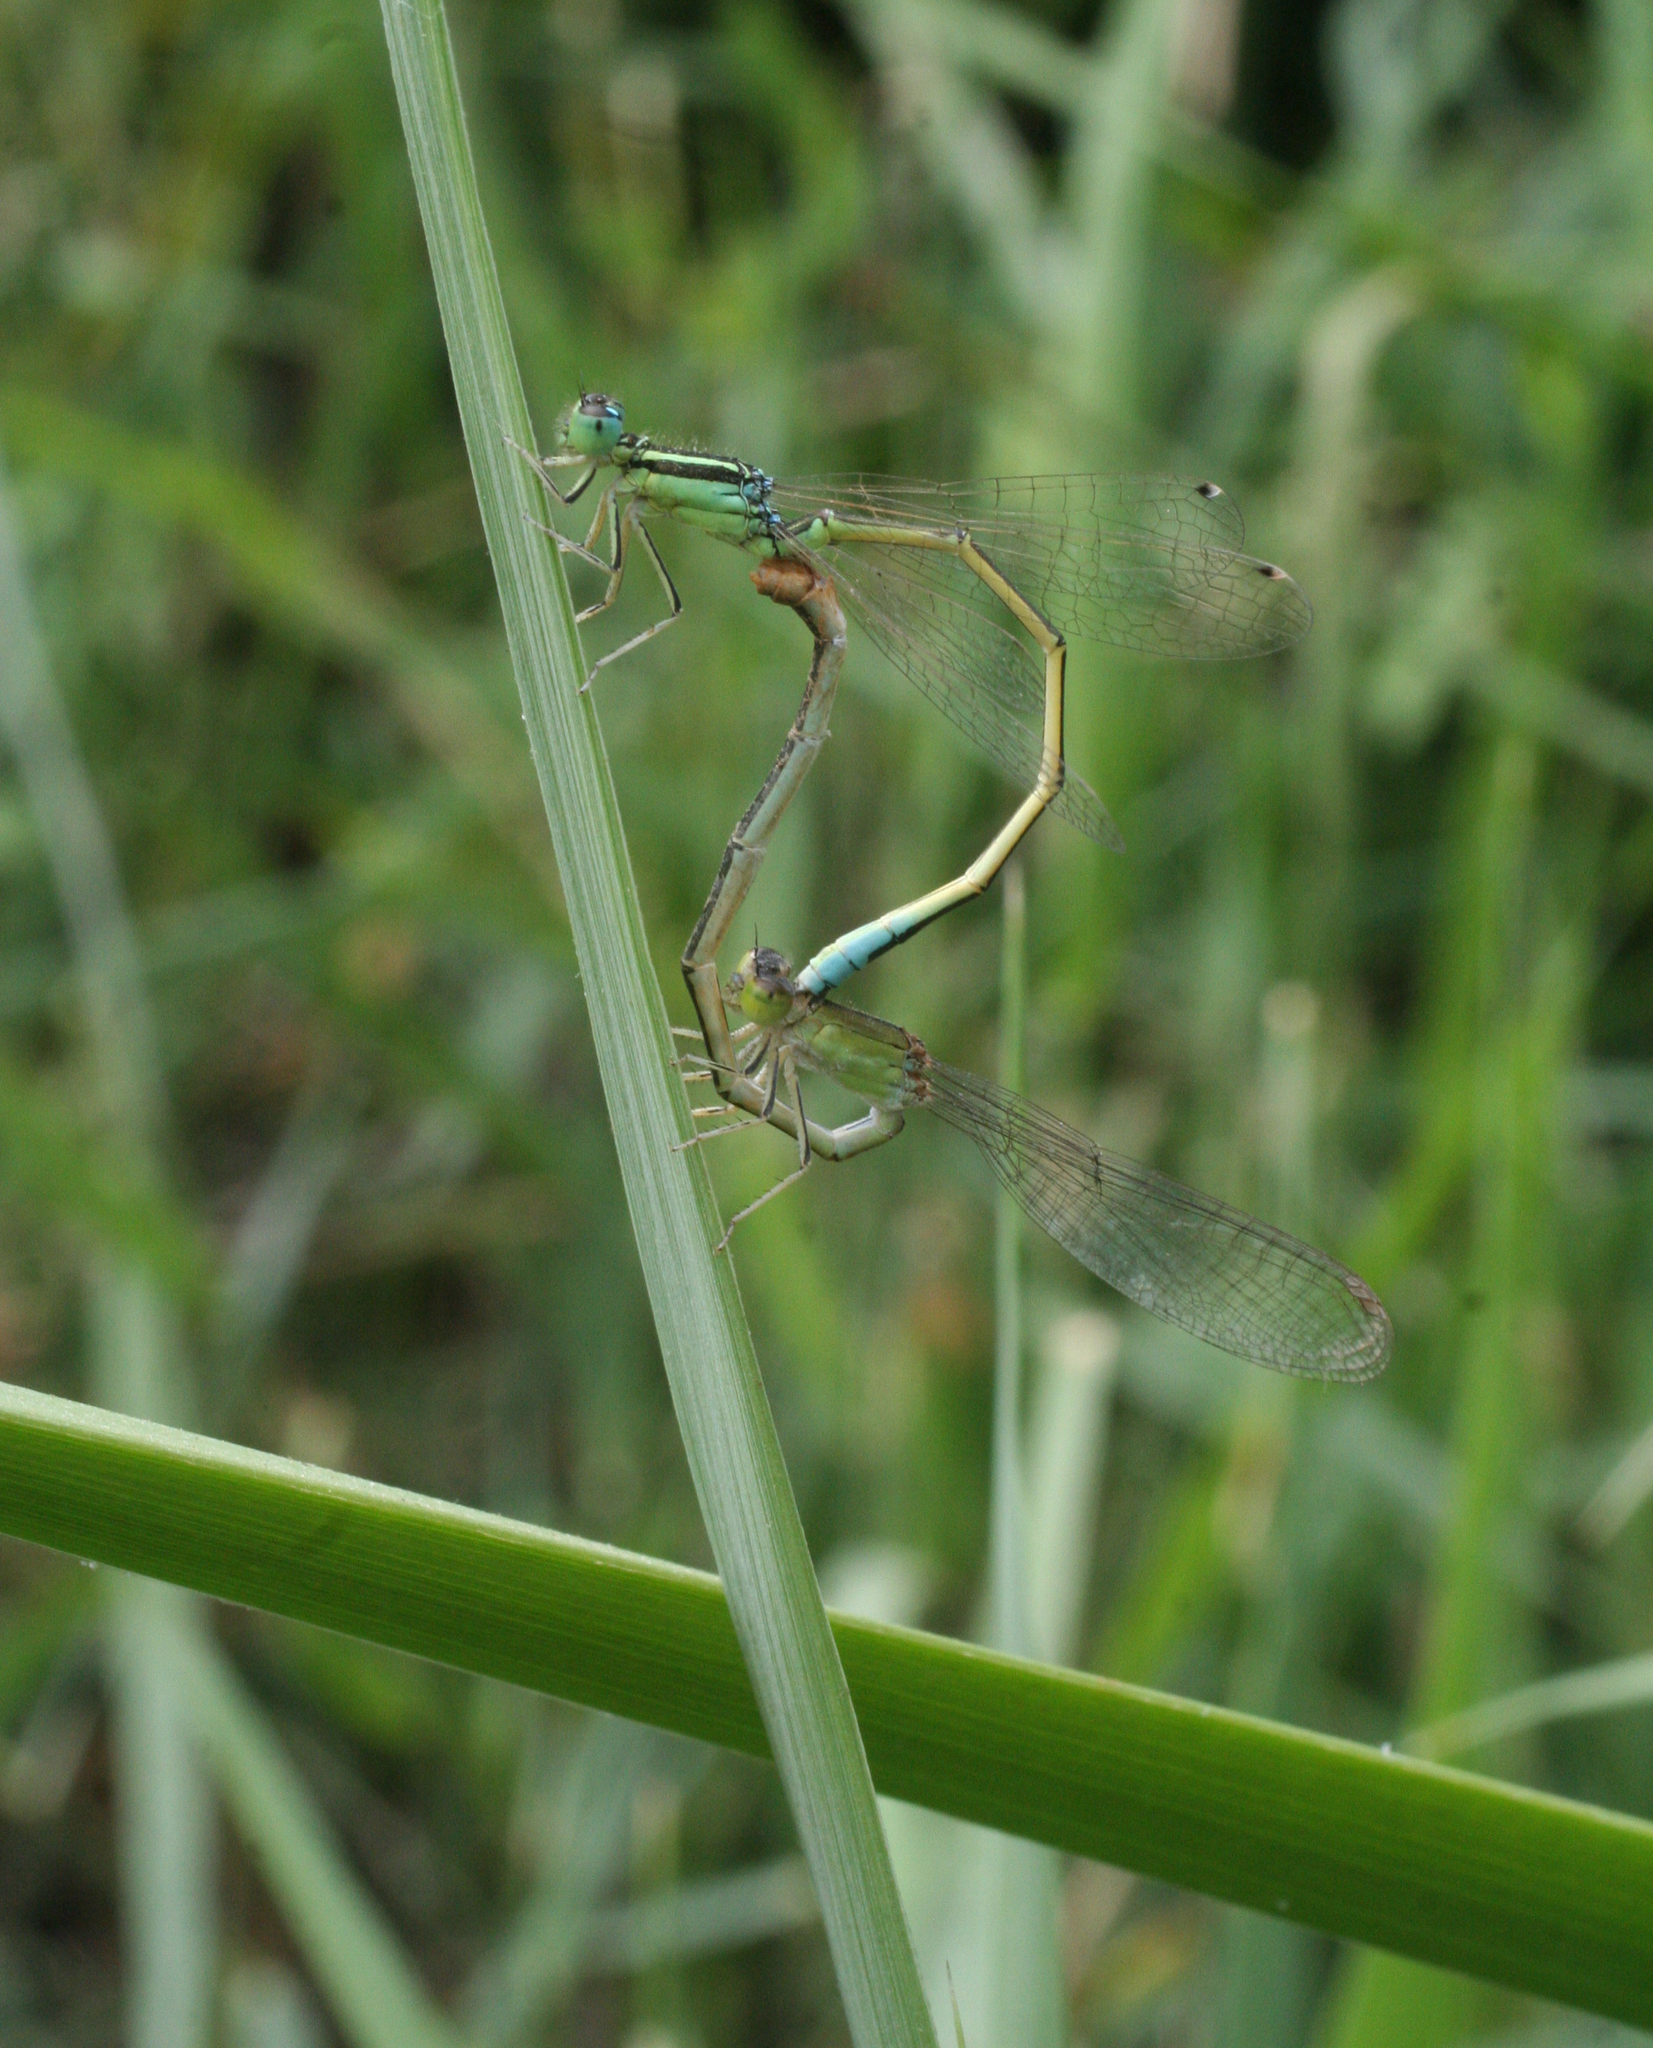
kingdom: Animalia
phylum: Arthropoda
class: Insecta
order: Odonata
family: Coenagrionidae
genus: Ischnura
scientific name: Ischnura pumilio
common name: Scarce blue-tailed damselfly
